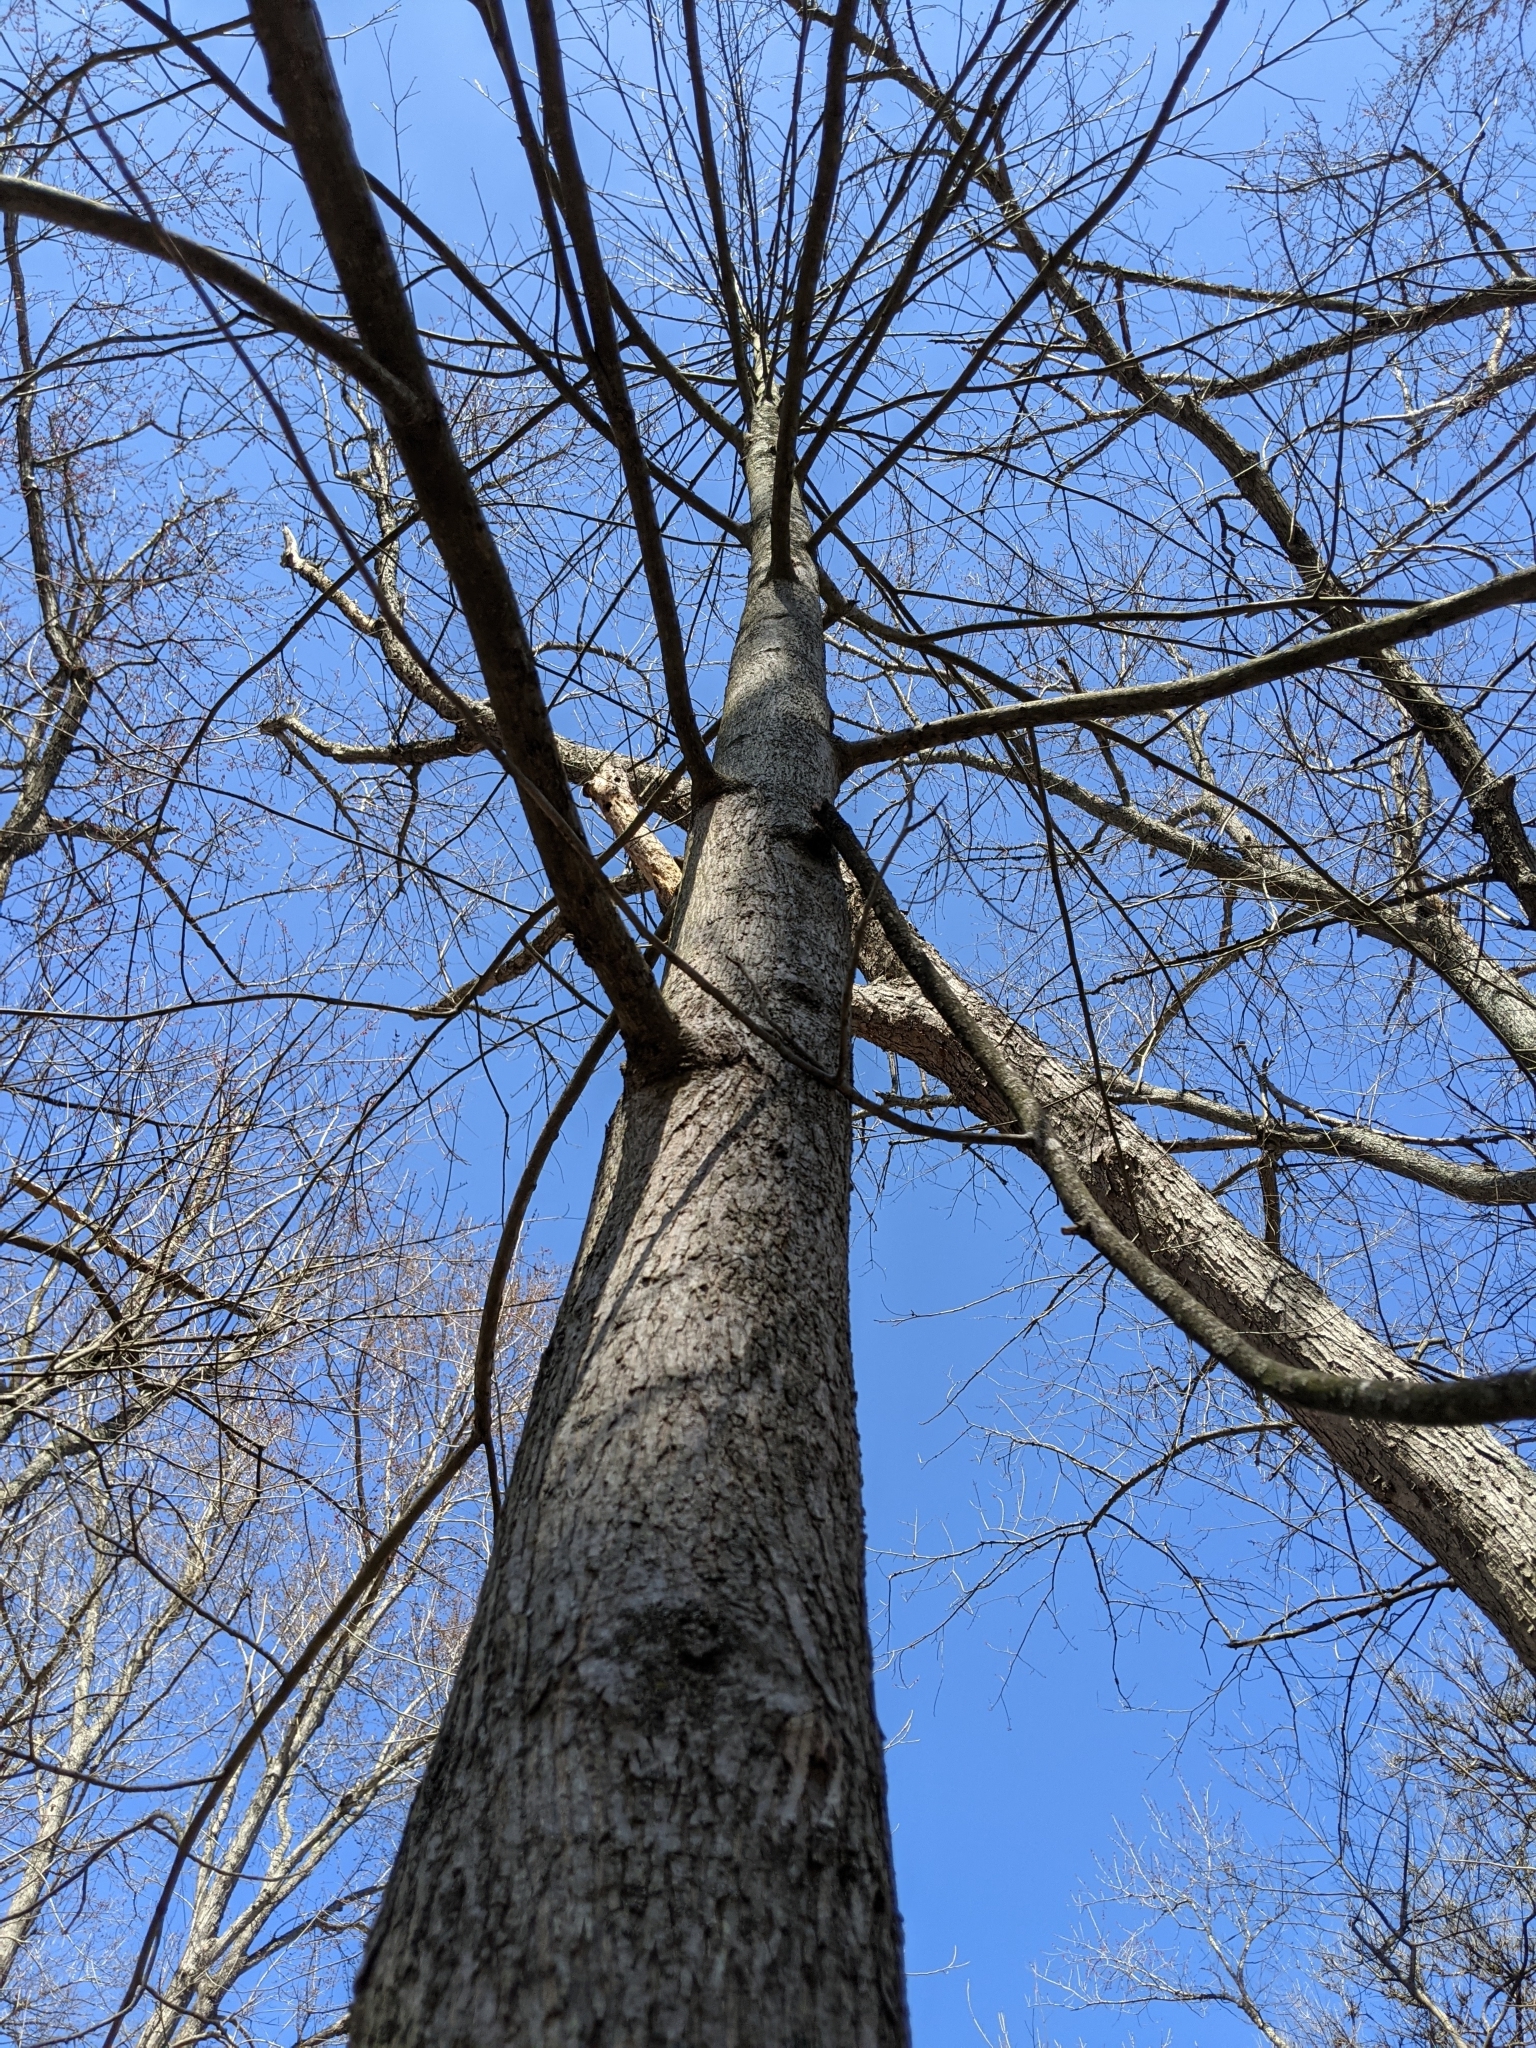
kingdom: Plantae
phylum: Tracheophyta
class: Magnoliopsida
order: Fagales
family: Juglandaceae
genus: Carya
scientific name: Carya cordiformis
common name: Bitternut hickory
